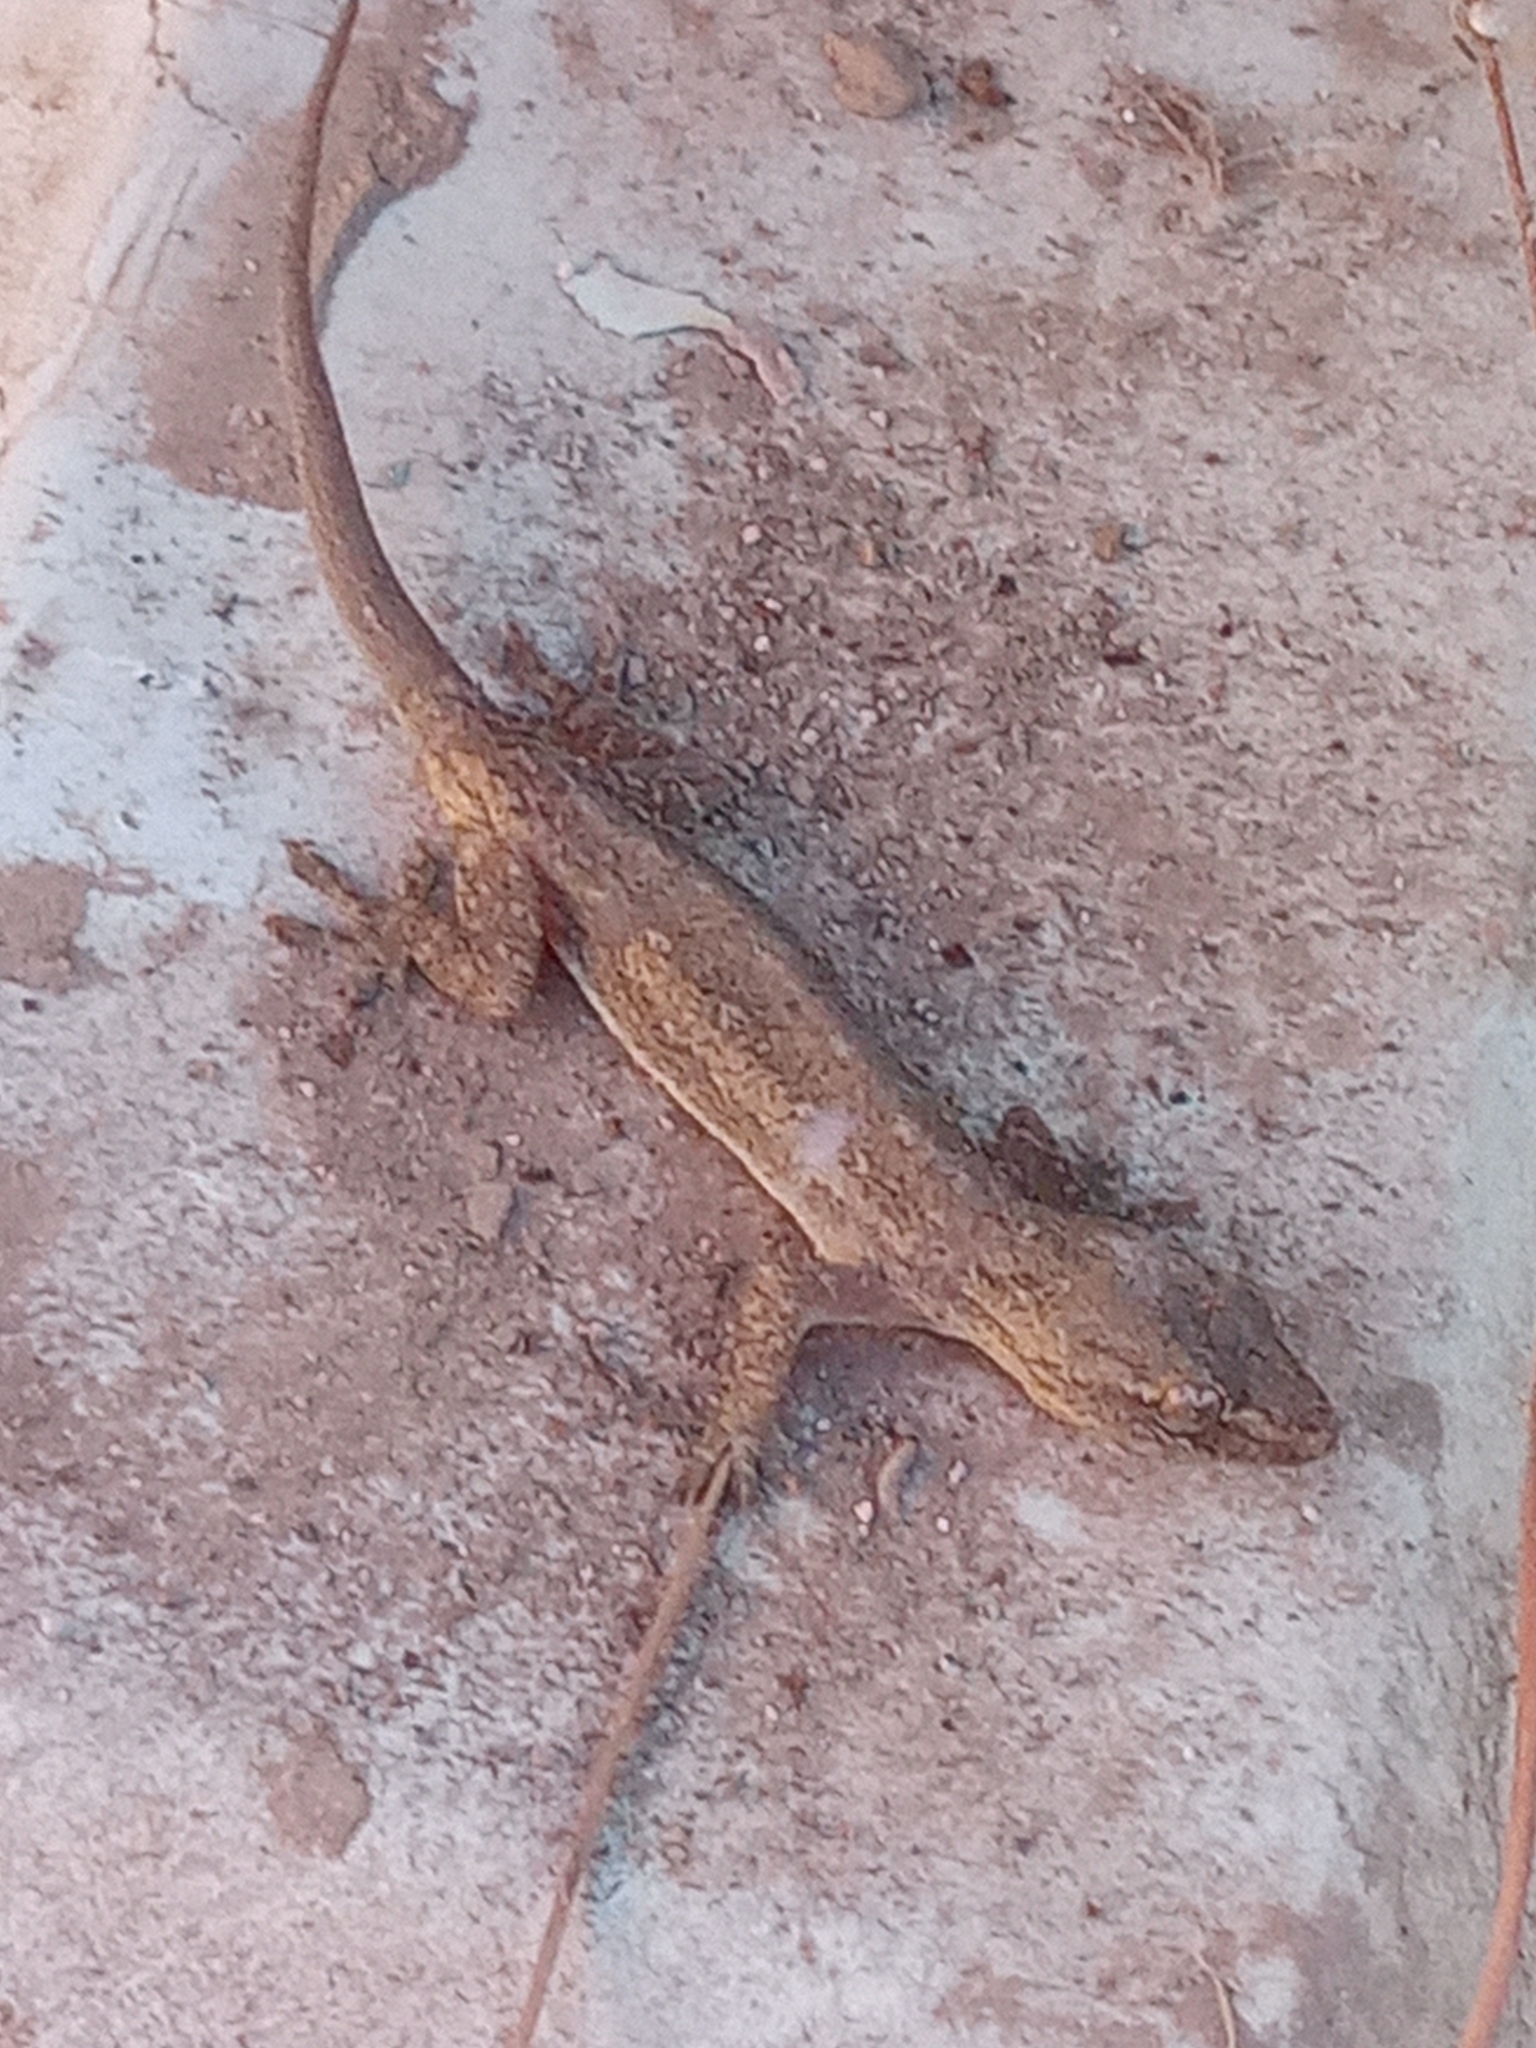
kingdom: Animalia
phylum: Chordata
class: Squamata
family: Gekkonidae
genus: Hemidactylus
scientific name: Hemidactylus frenatus
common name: Common house gecko
